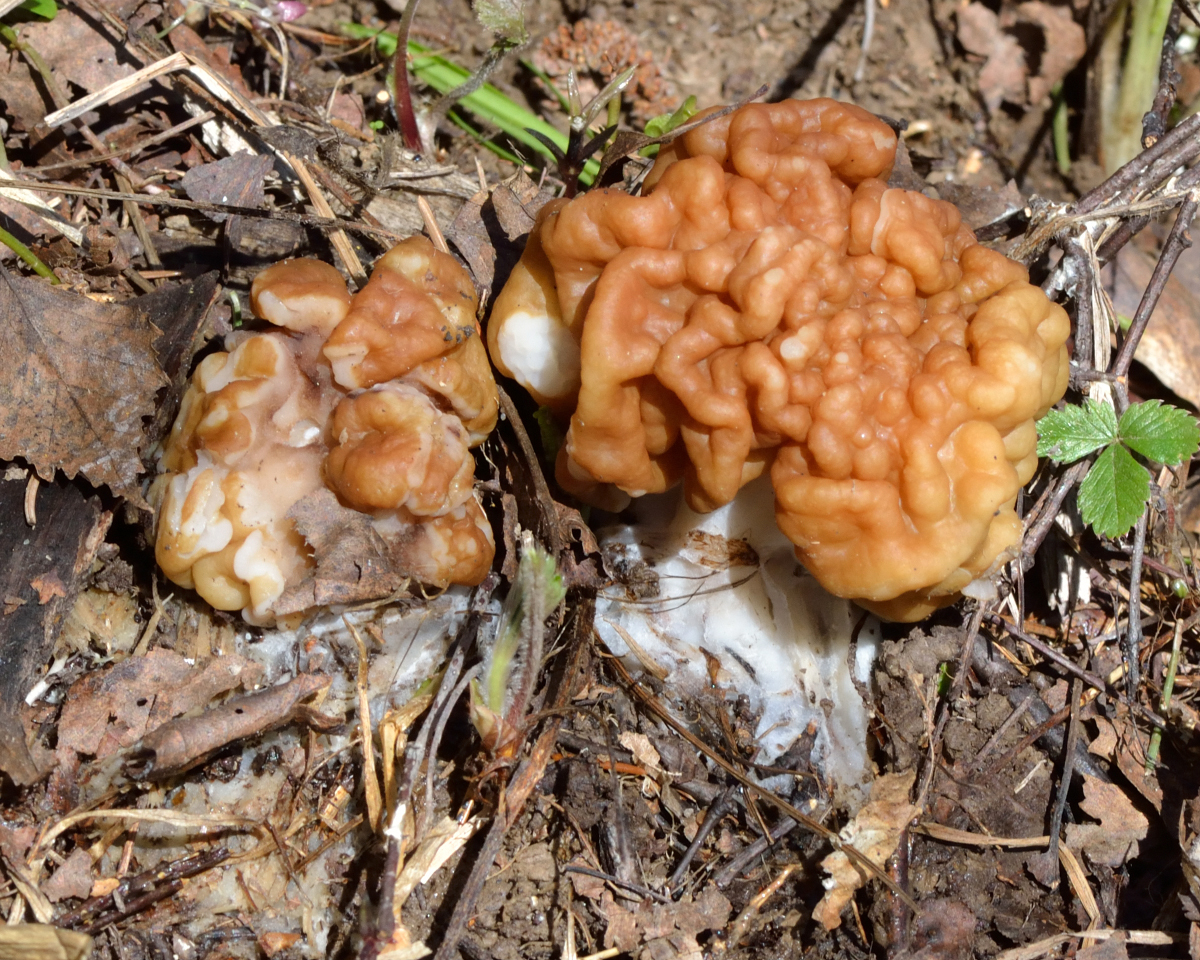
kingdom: Fungi
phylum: Ascomycota
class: Pezizomycetes
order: Pezizales
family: Discinaceae
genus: Gyromitra
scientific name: Gyromitra gigas
